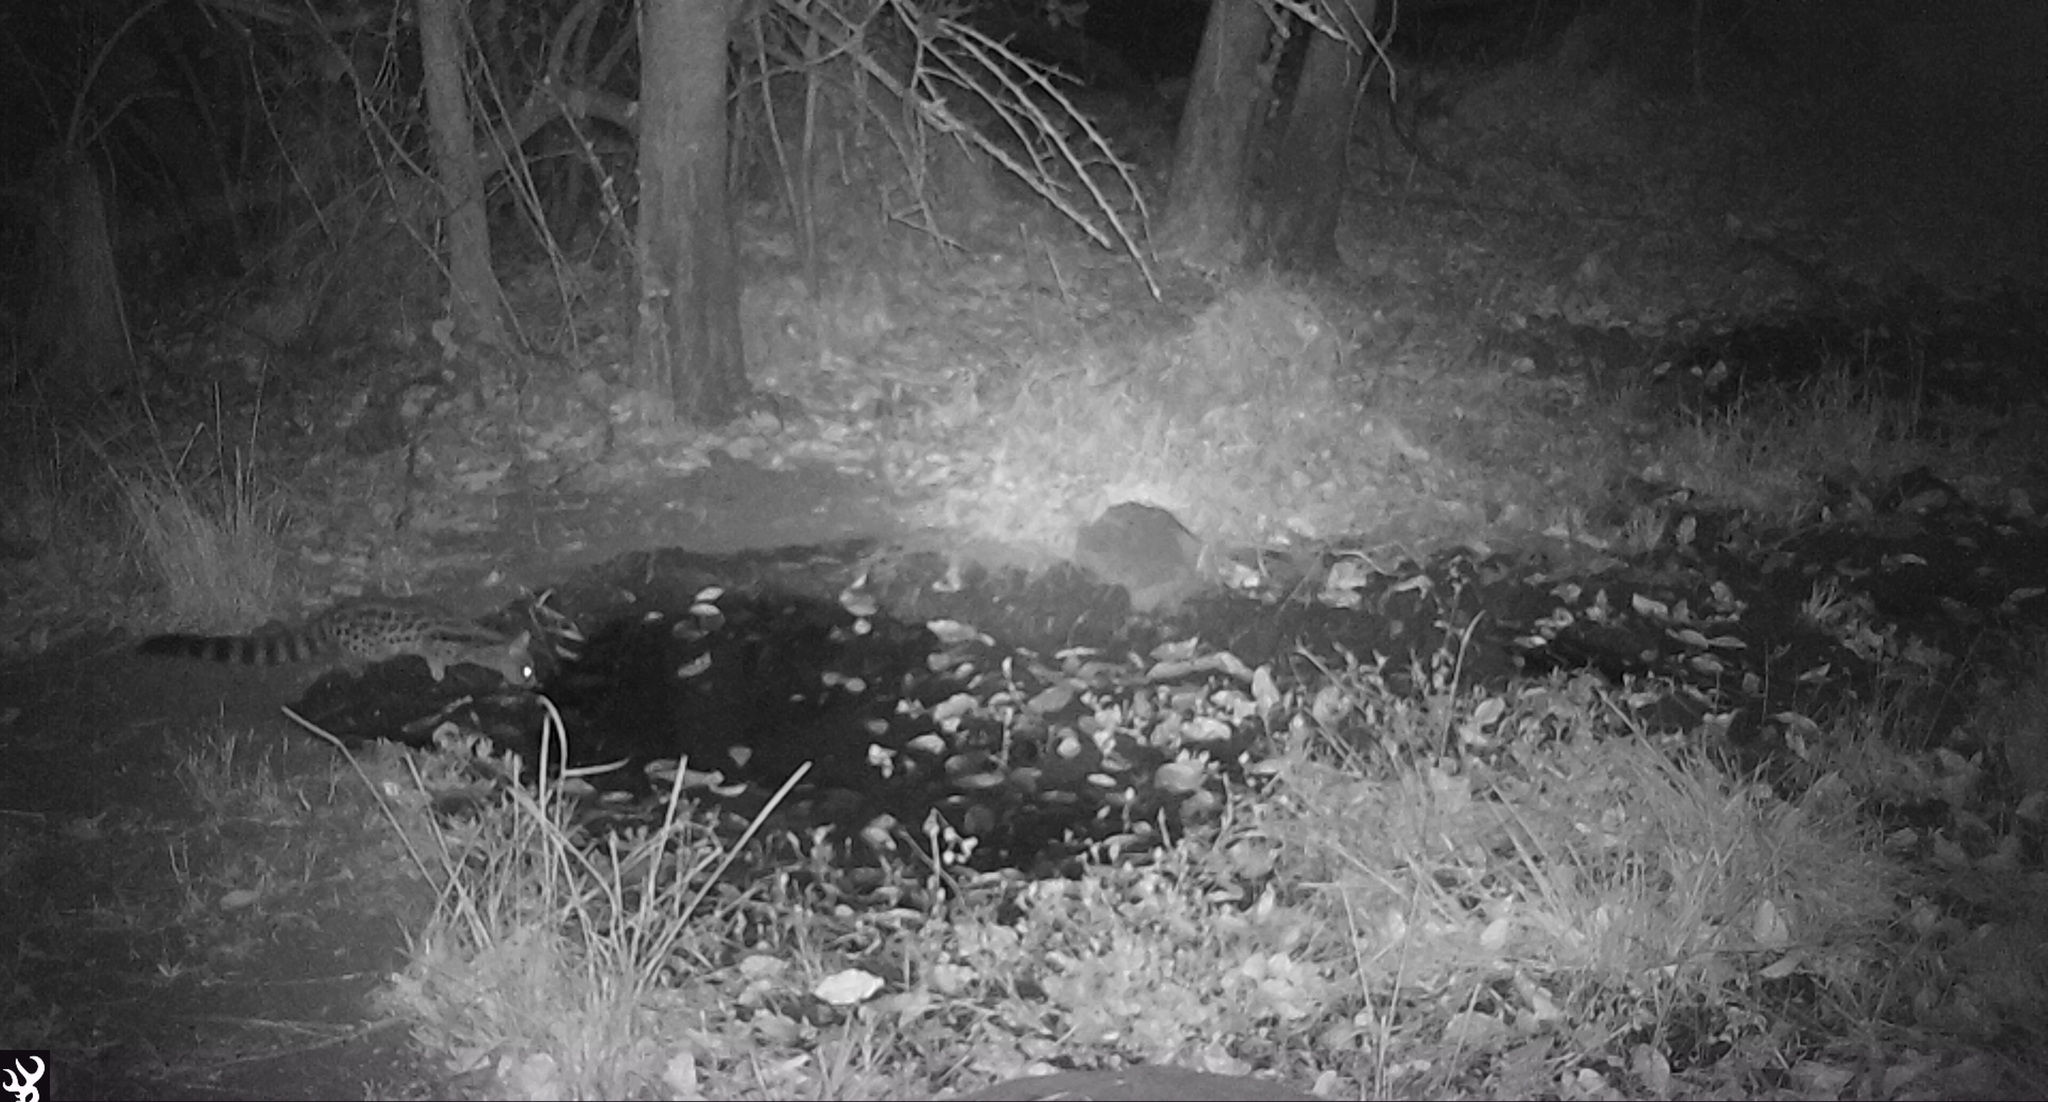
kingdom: Animalia
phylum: Chordata
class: Mammalia
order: Carnivora
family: Viverridae
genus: Genetta
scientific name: Genetta maculata
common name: Rusty-spotted genet
